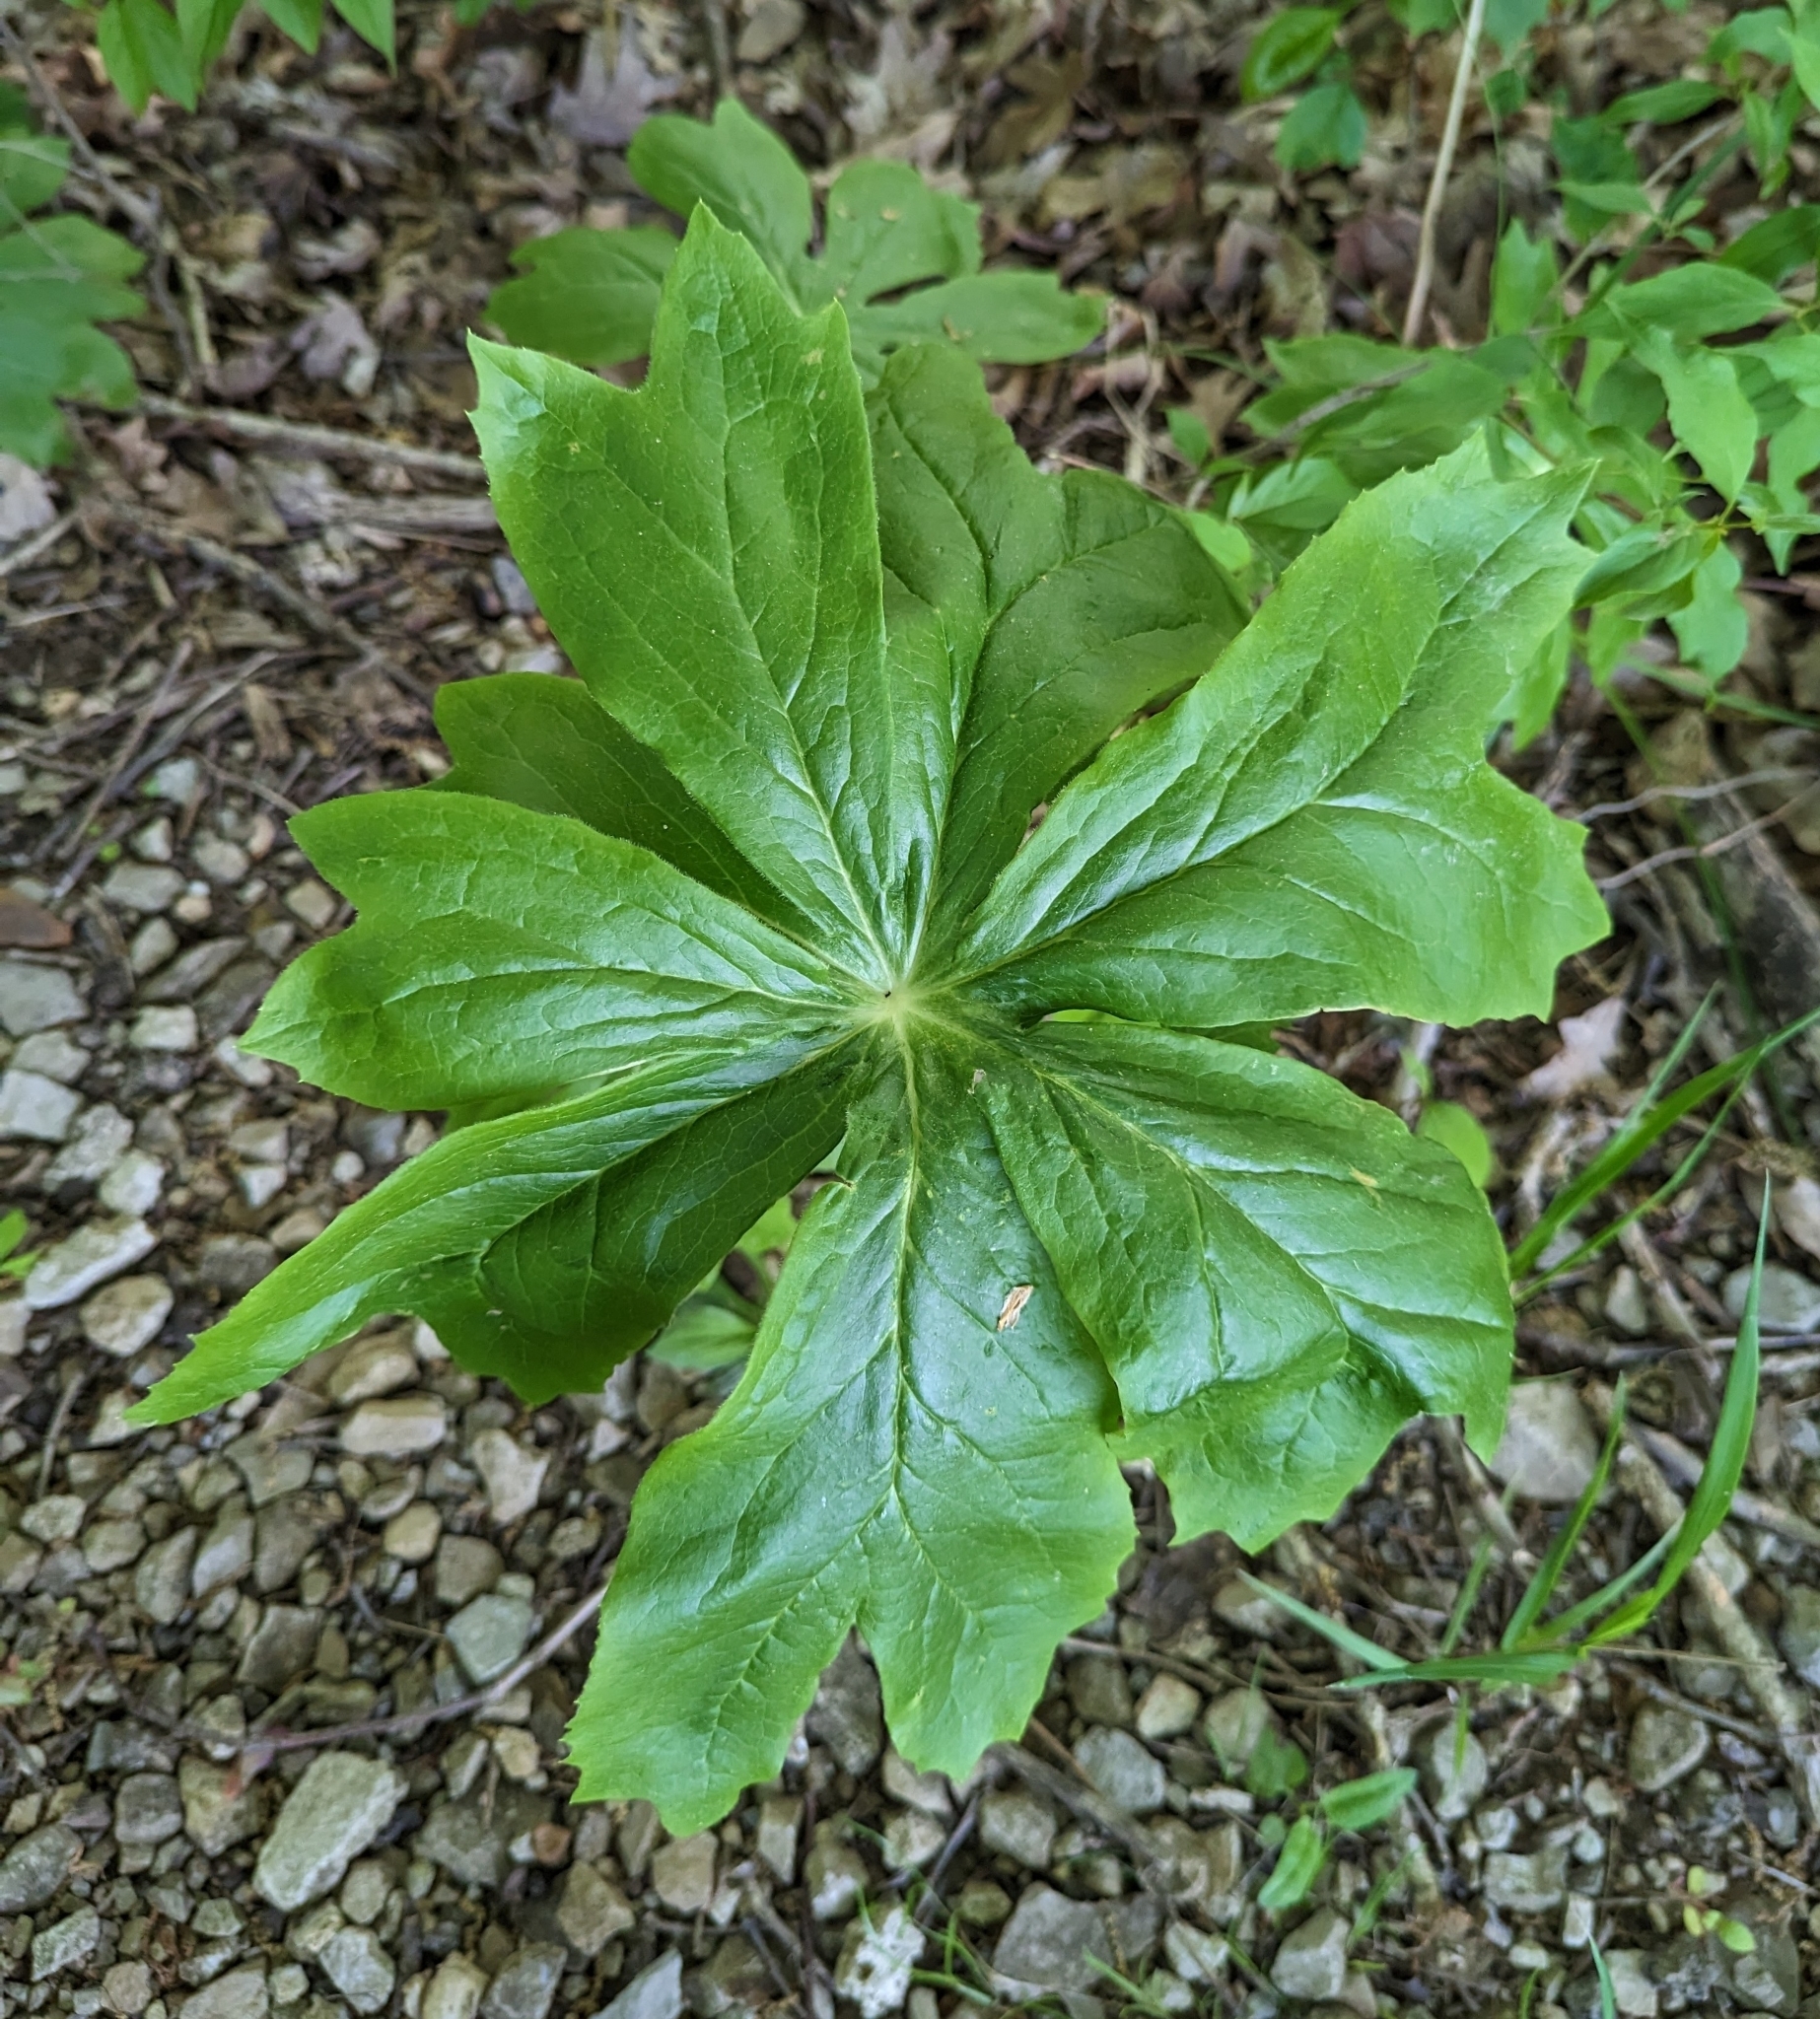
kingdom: Plantae
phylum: Tracheophyta
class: Magnoliopsida
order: Ranunculales
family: Berberidaceae
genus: Podophyllum
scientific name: Podophyllum peltatum
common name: Wild mandrake
